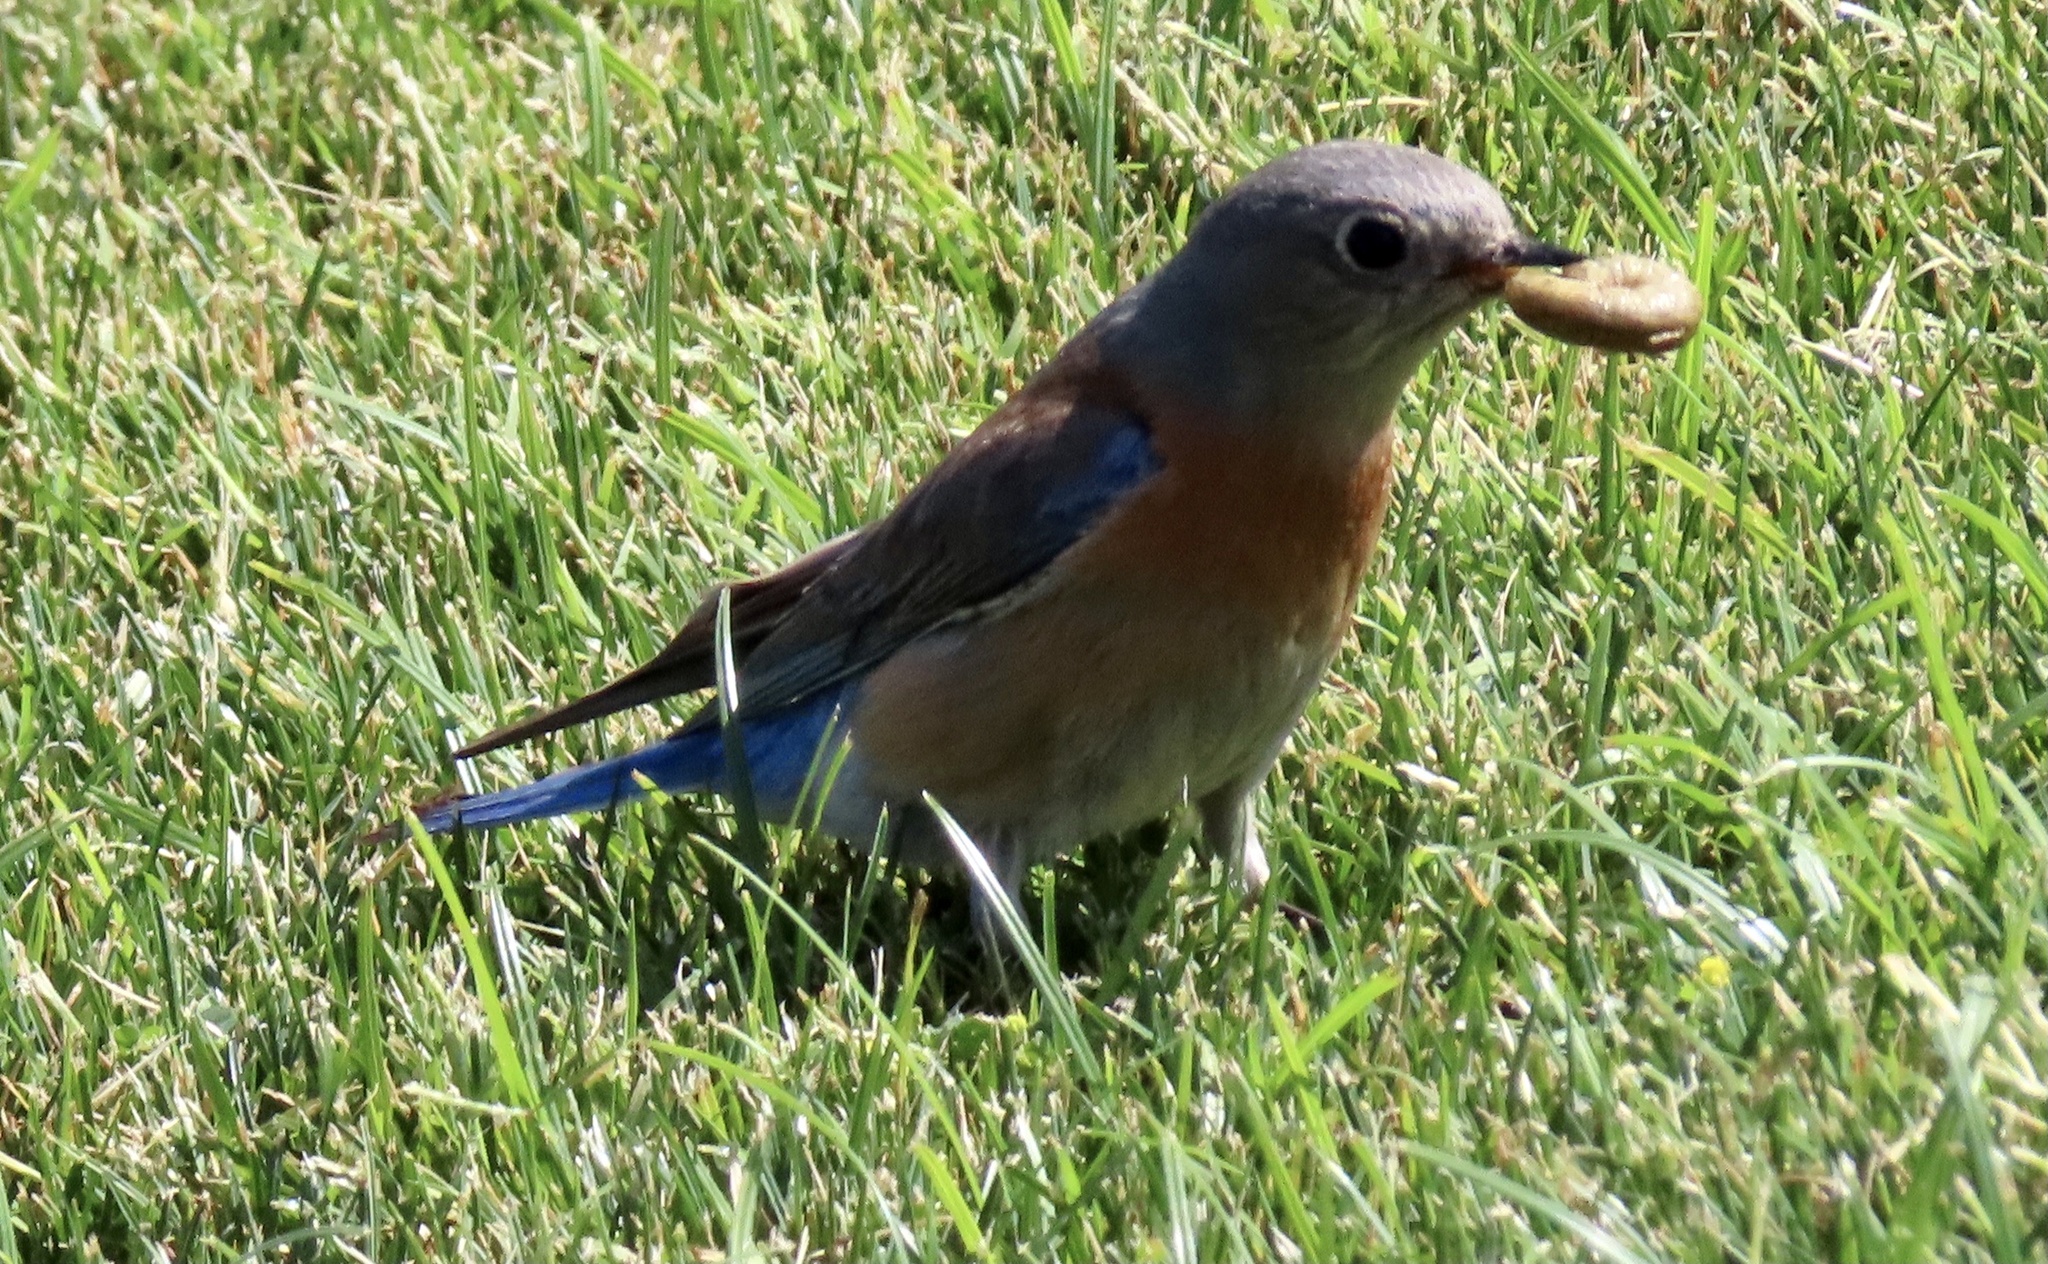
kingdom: Animalia
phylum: Chordata
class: Aves
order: Passeriformes
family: Turdidae
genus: Sialia
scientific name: Sialia mexicana
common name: Western bluebird
